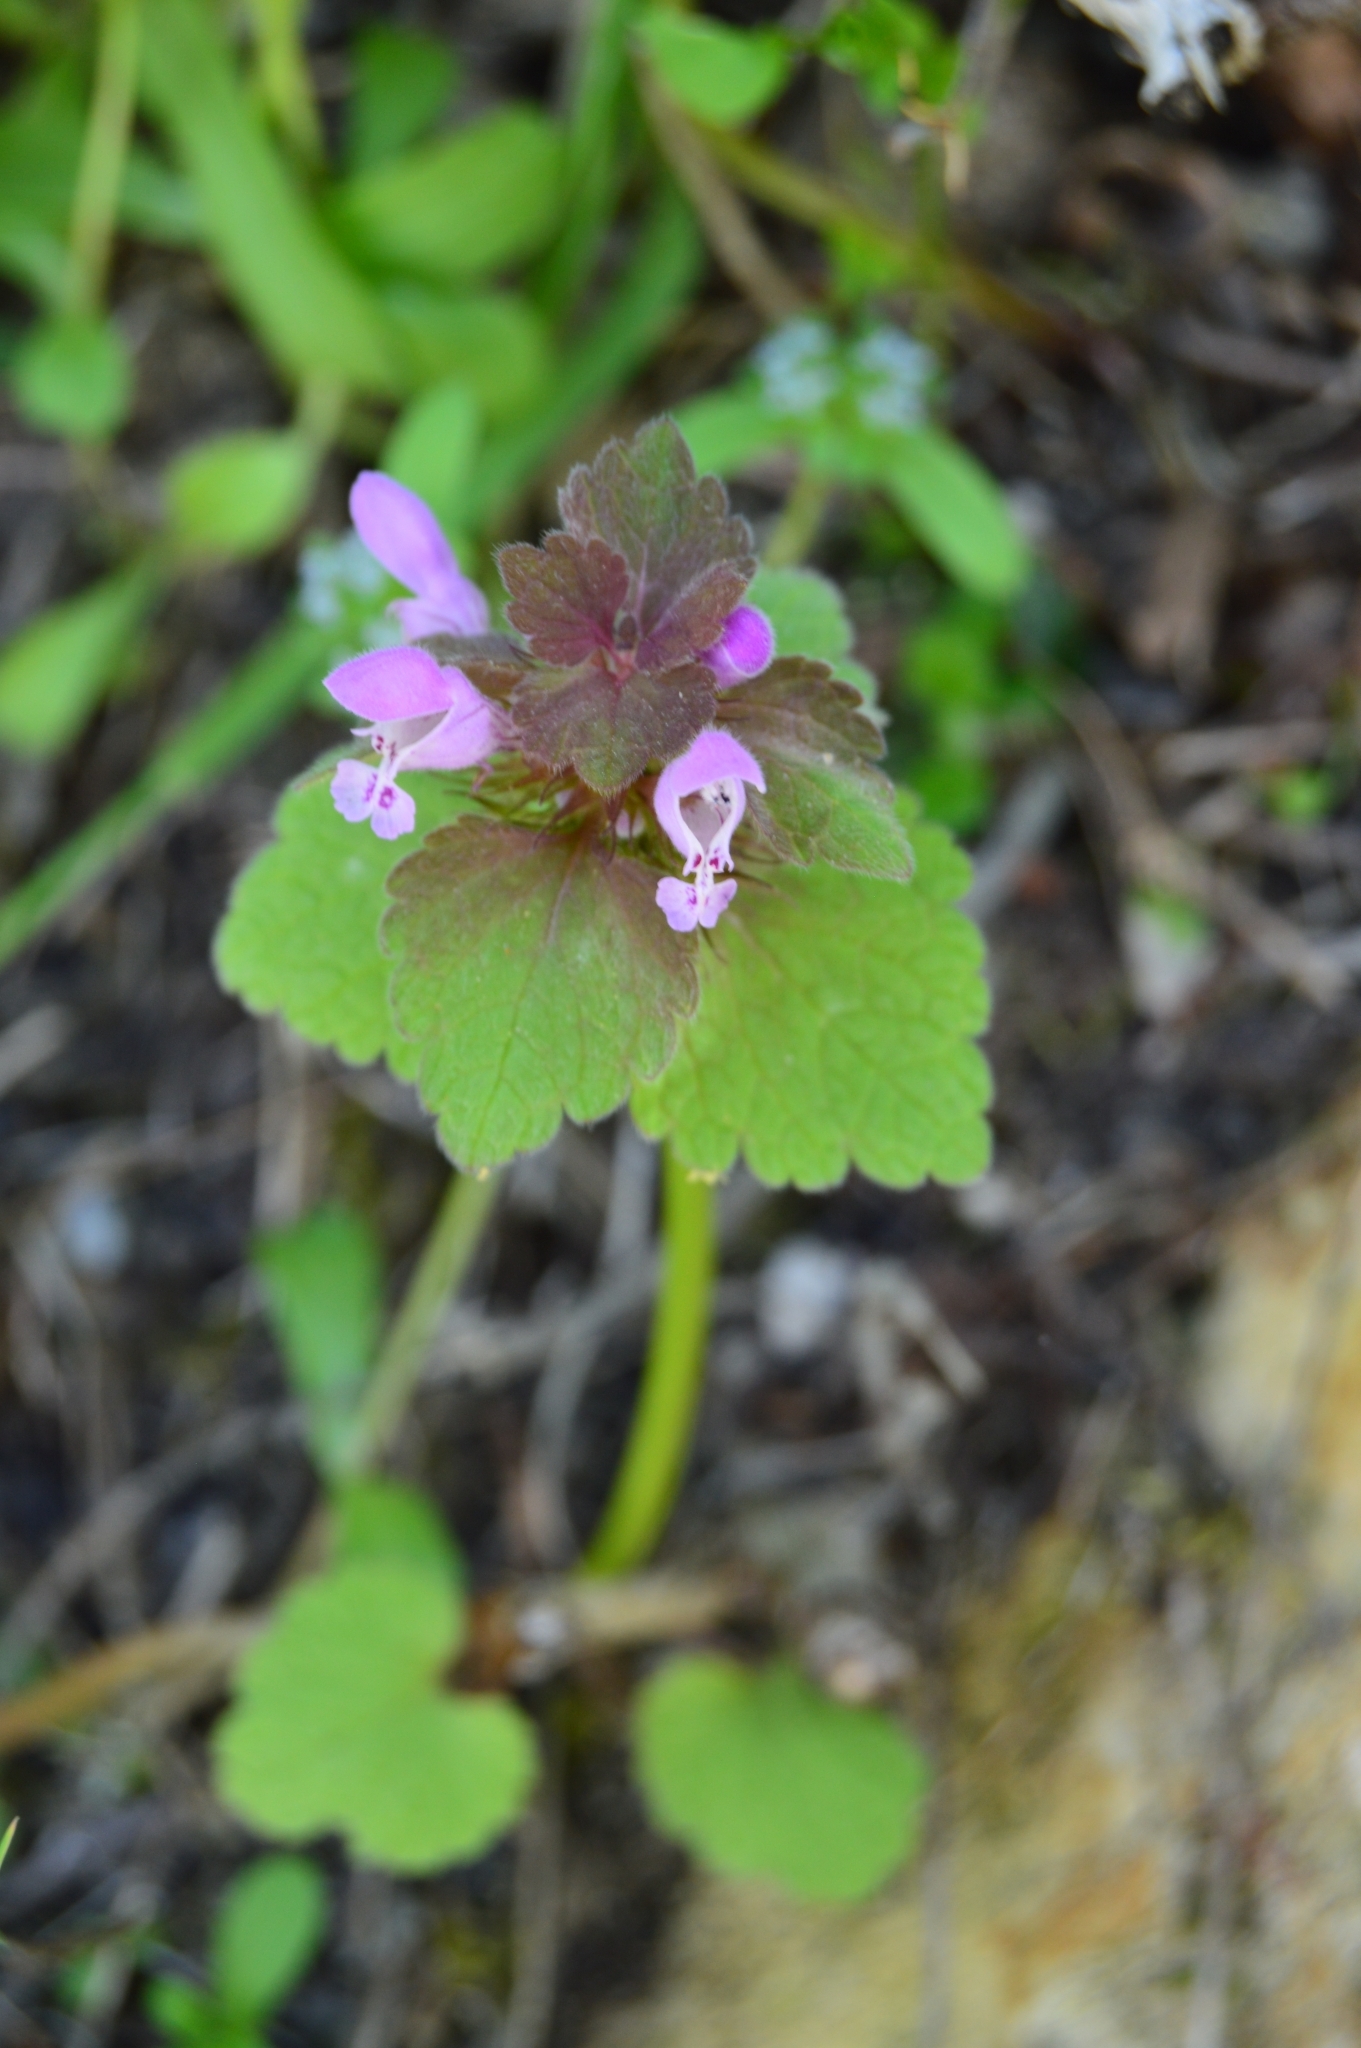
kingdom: Plantae
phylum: Tracheophyta
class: Magnoliopsida
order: Lamiales
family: Lamiaceae
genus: Lamium
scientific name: Lamium purpureum
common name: Red dead-nettle
